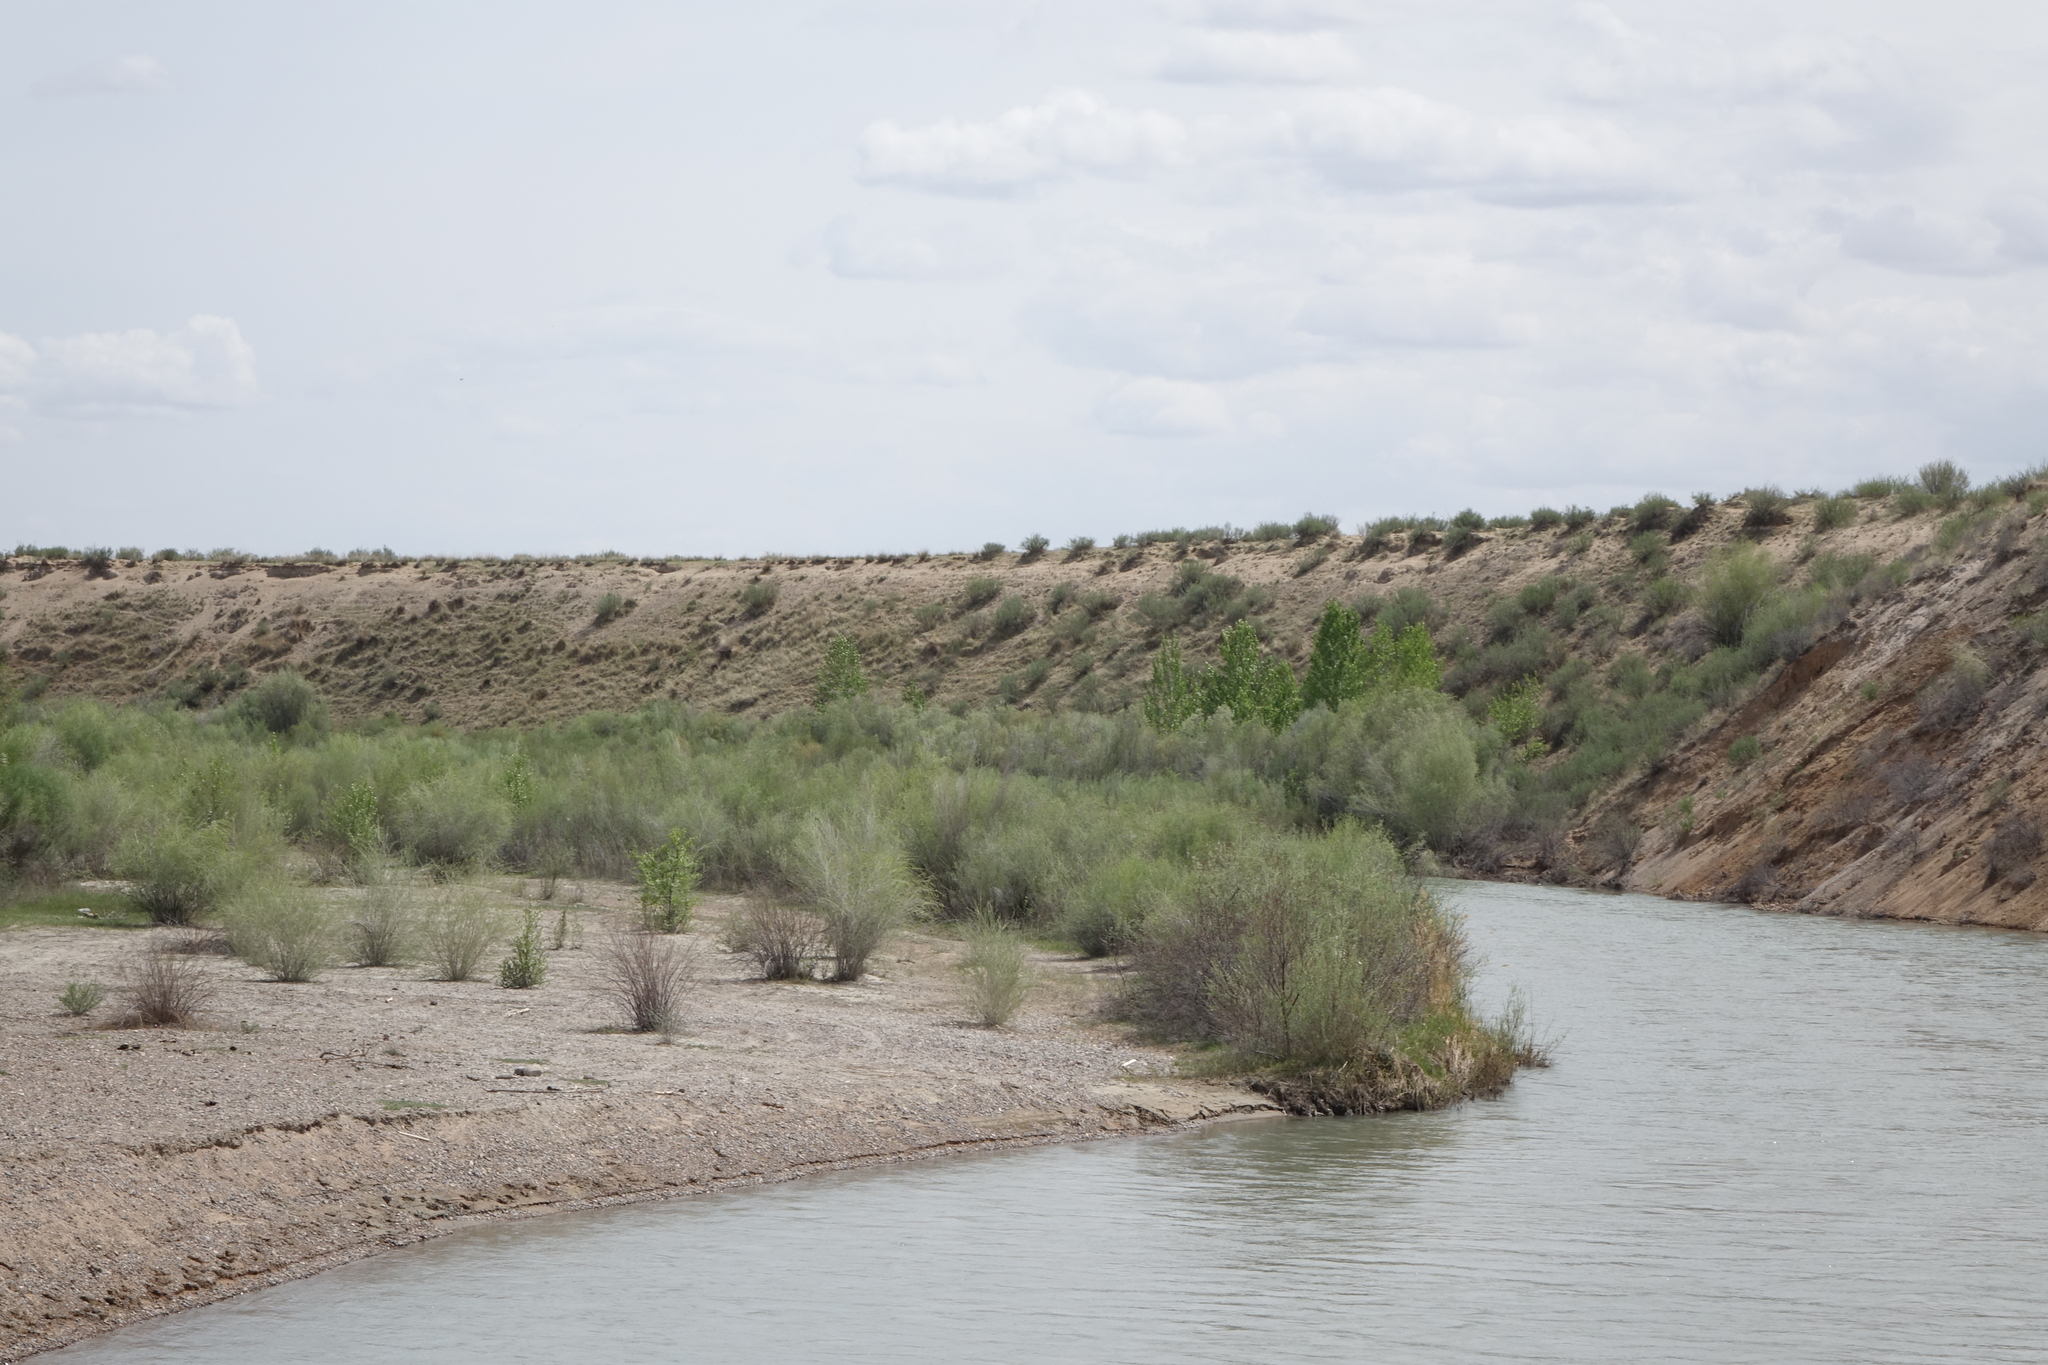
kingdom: Plantae
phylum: Tracheophyta
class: Magnoliopsida
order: Malpighiales
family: Salicaceae
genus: Salix
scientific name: Salix ledebouriana
